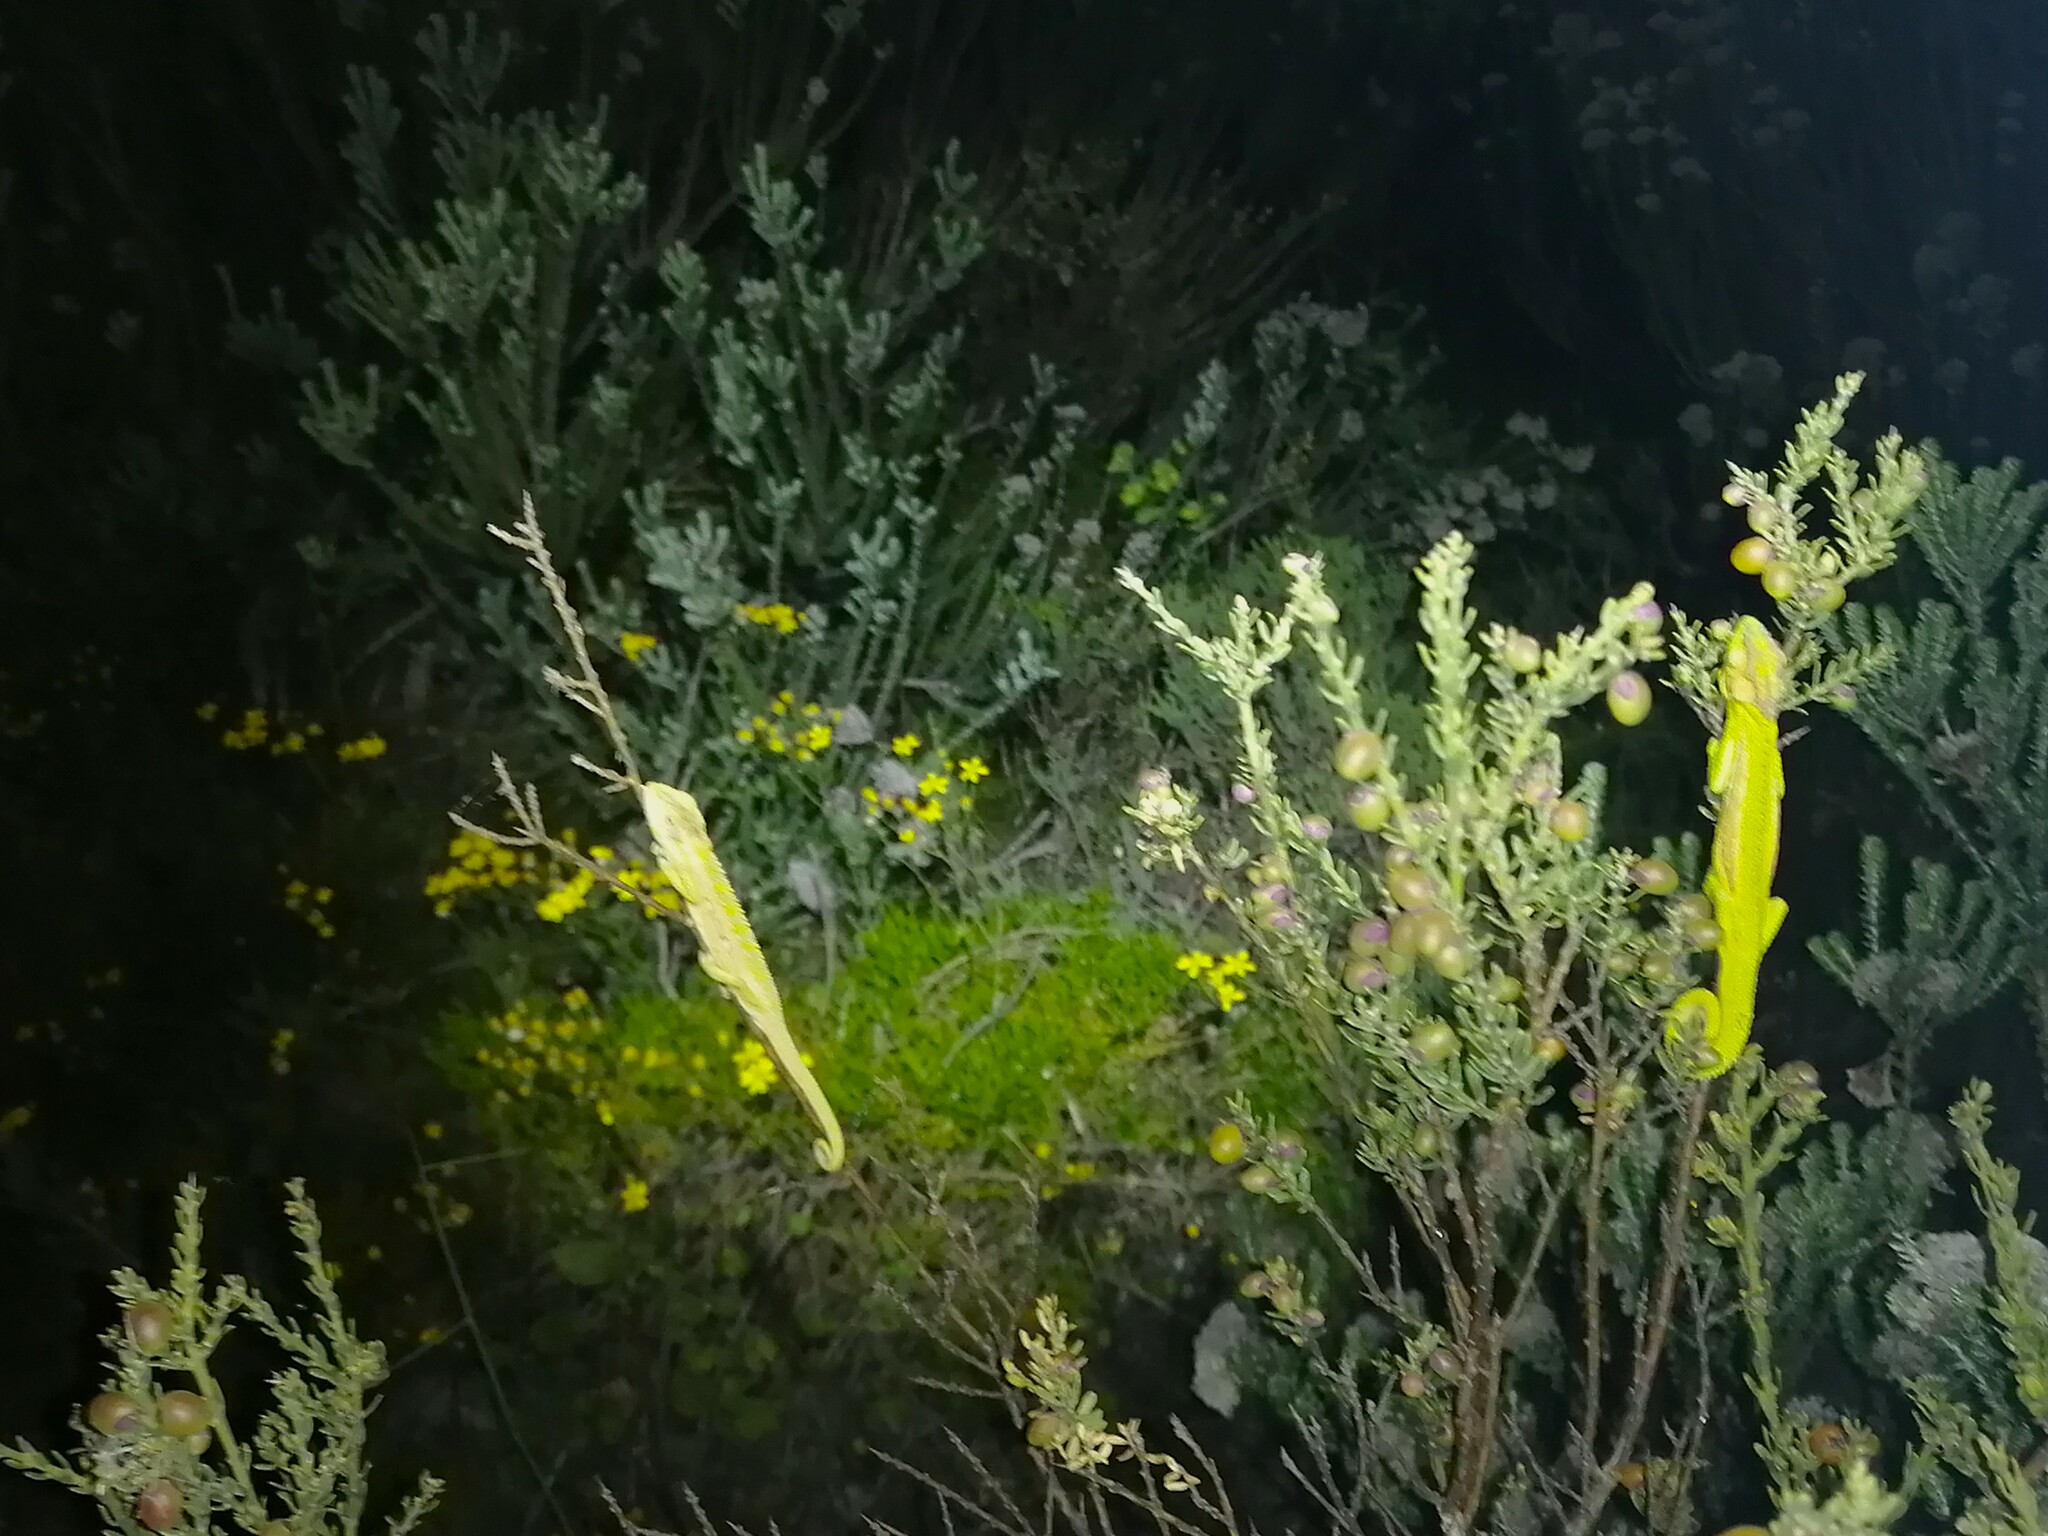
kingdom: Animalia
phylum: Chordata
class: Squamata
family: Chamaeleonidae
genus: Bradypodion
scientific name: Bradypodion pumilum
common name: Cape dwarf chameleon
